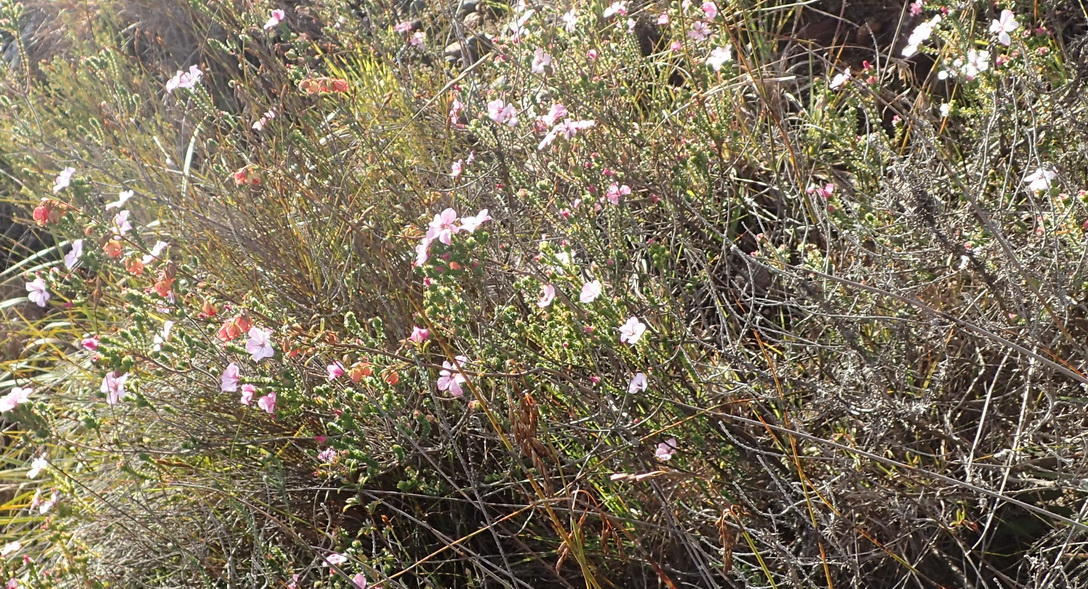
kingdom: Plantae
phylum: Tracheophyta
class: Magnoliopsida
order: Malvales
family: Malvaceae
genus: Hermannia
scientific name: Hermannia angularis
